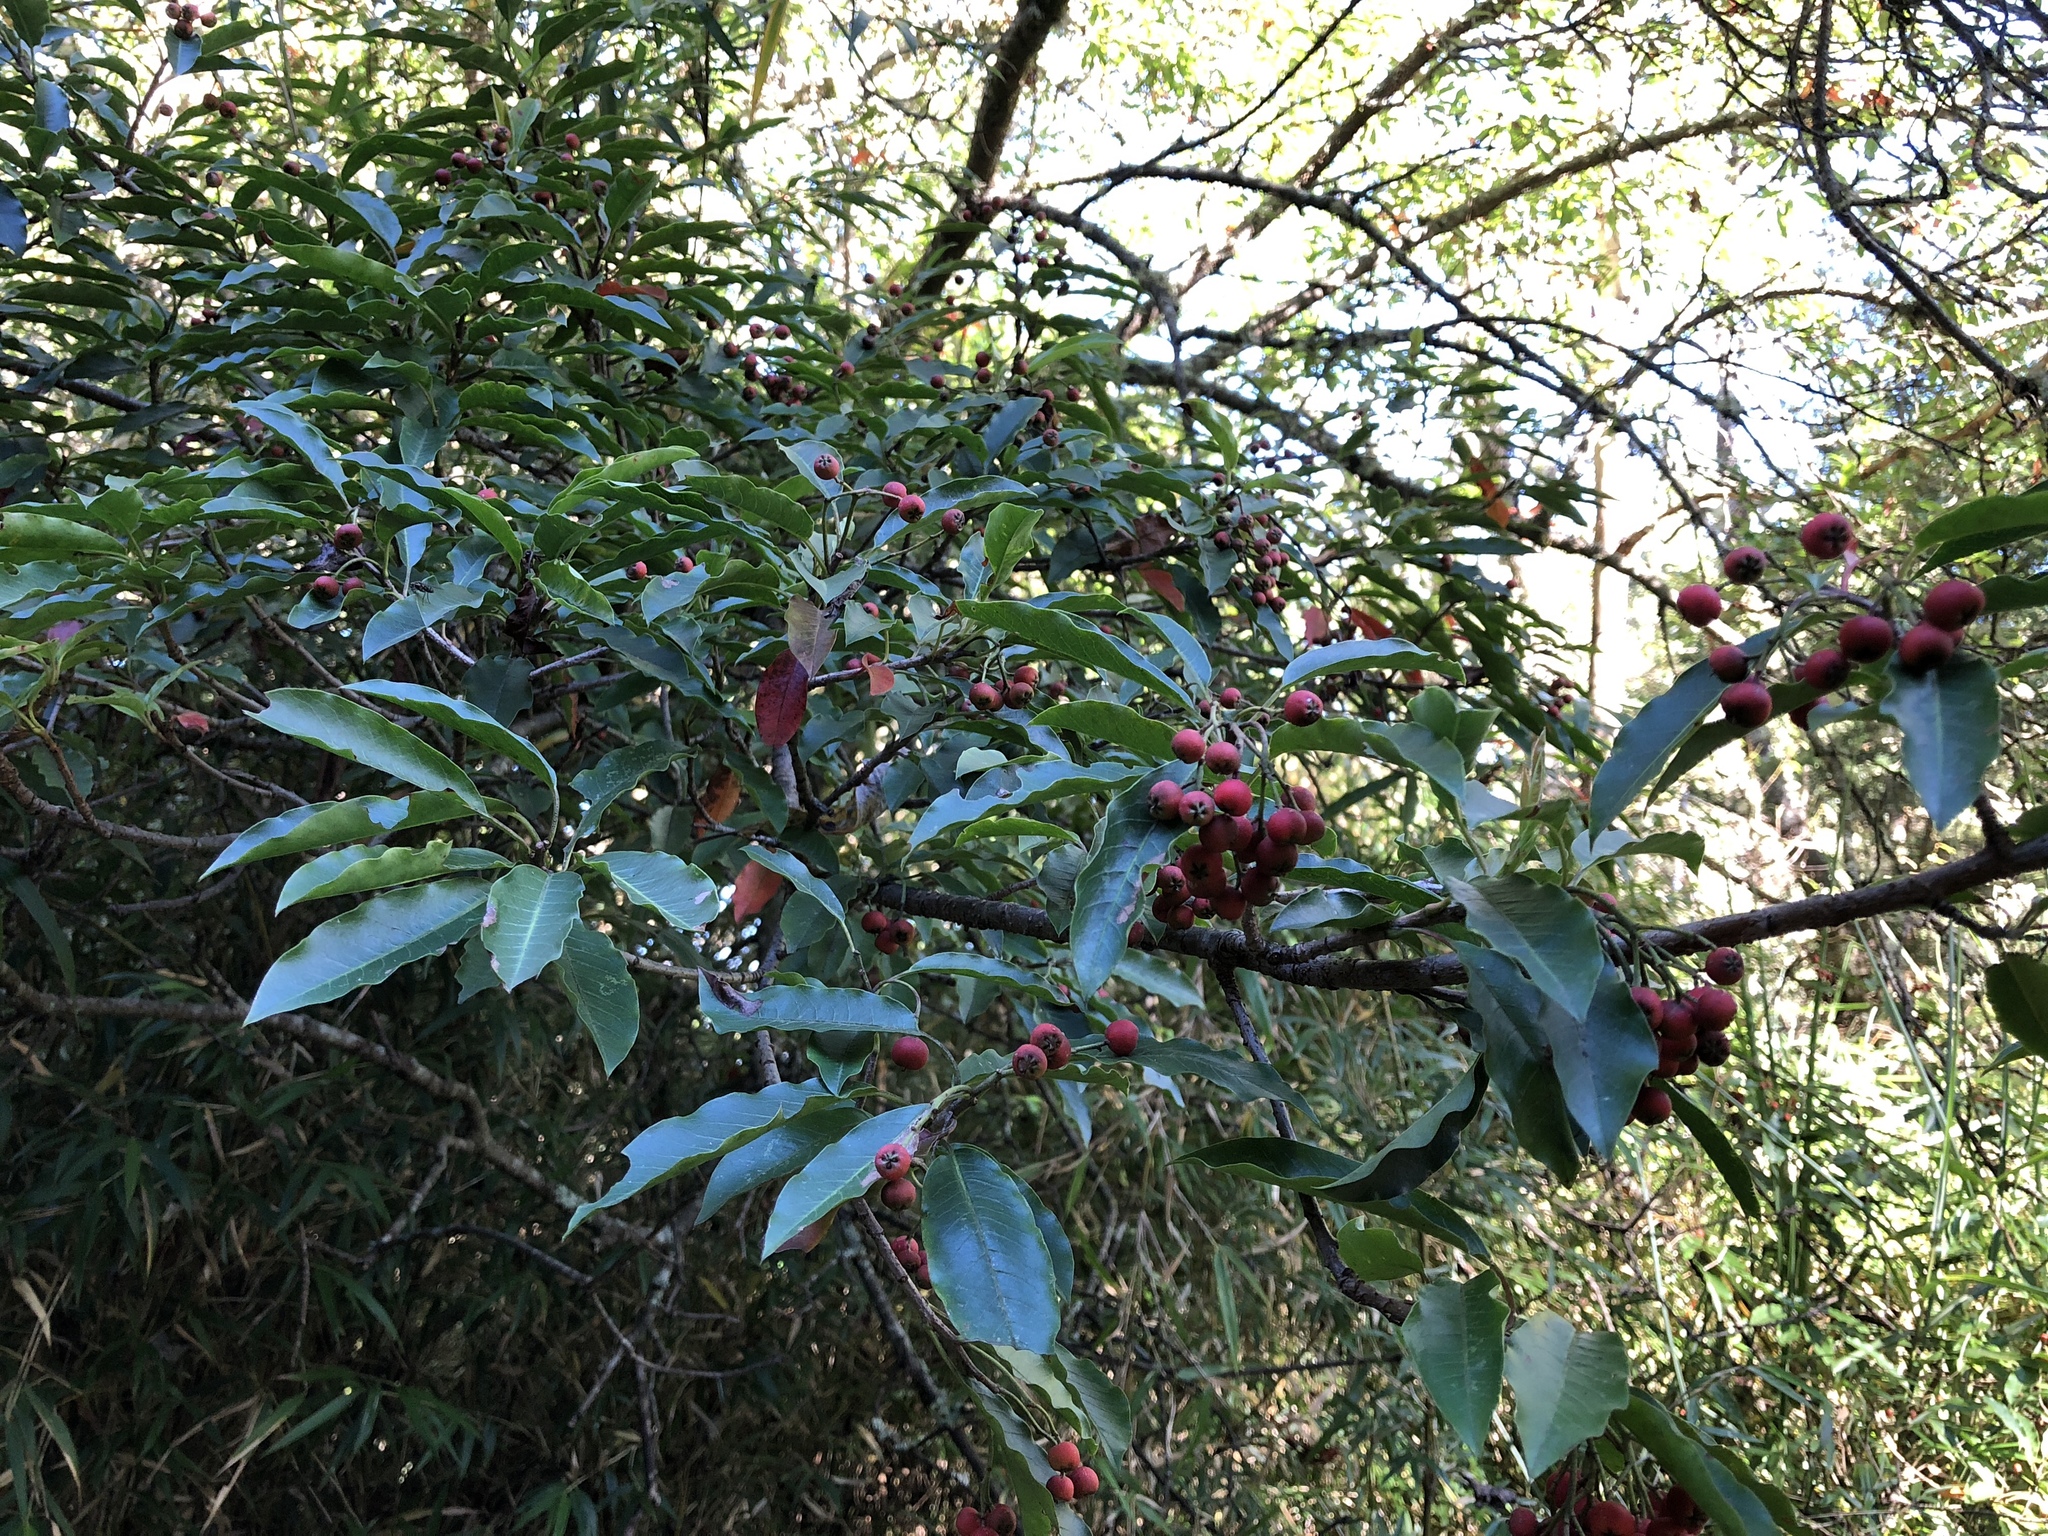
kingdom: Plantae
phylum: Tracheophyta
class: Magnoliopsida
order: Rosales
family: Rosaceae
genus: Stranvaesia
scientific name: Stranvaesia davidiana
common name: Chinese photinia
